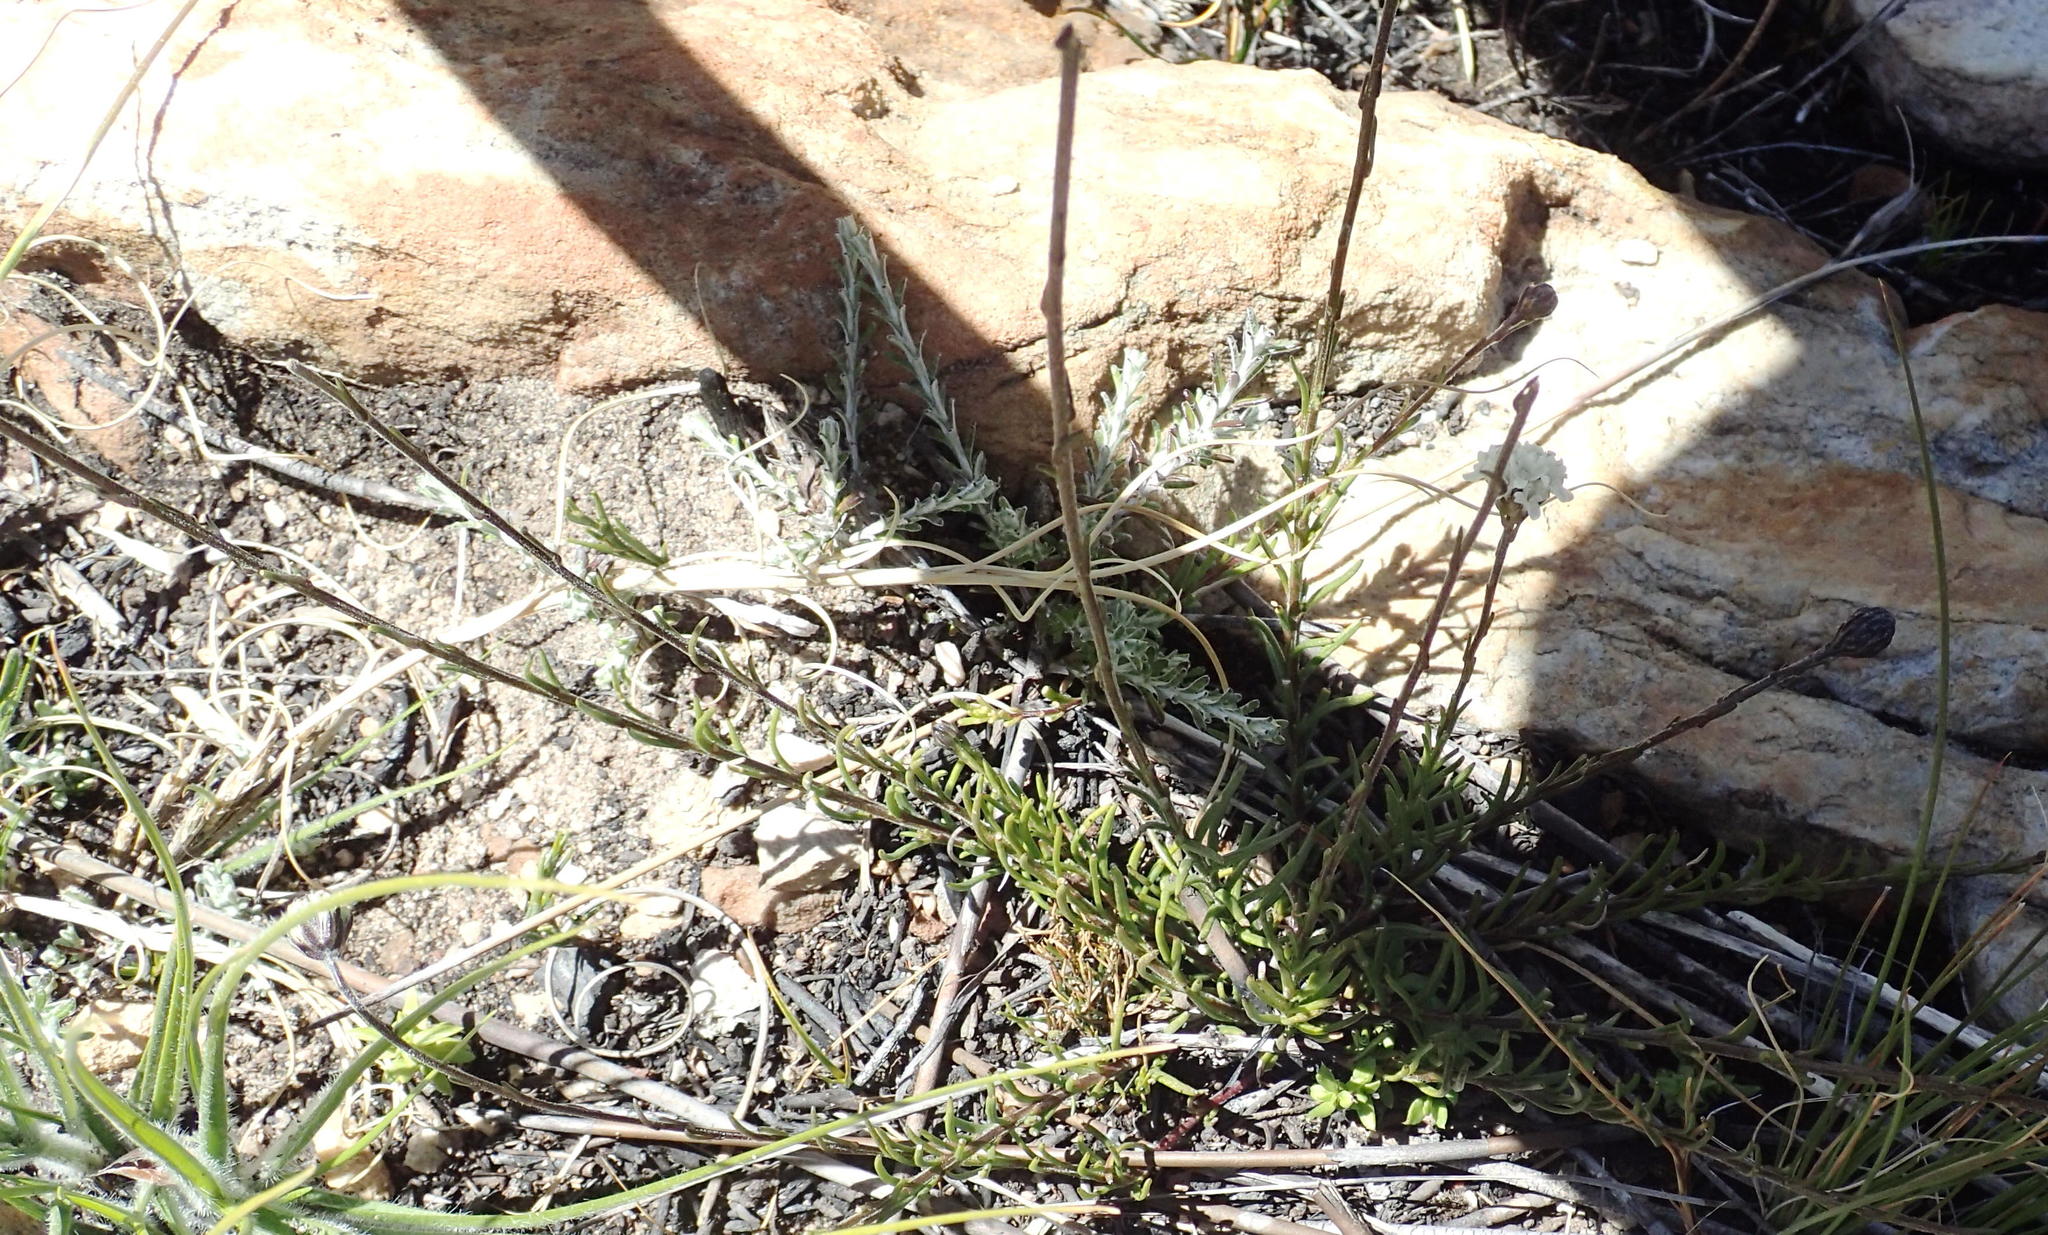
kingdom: Plantae
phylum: Tracheophyta
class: Magnoliopsida
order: Lamiales
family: Scrophulariaceae
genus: Phyllopodium
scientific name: Phyllopodium elegans
